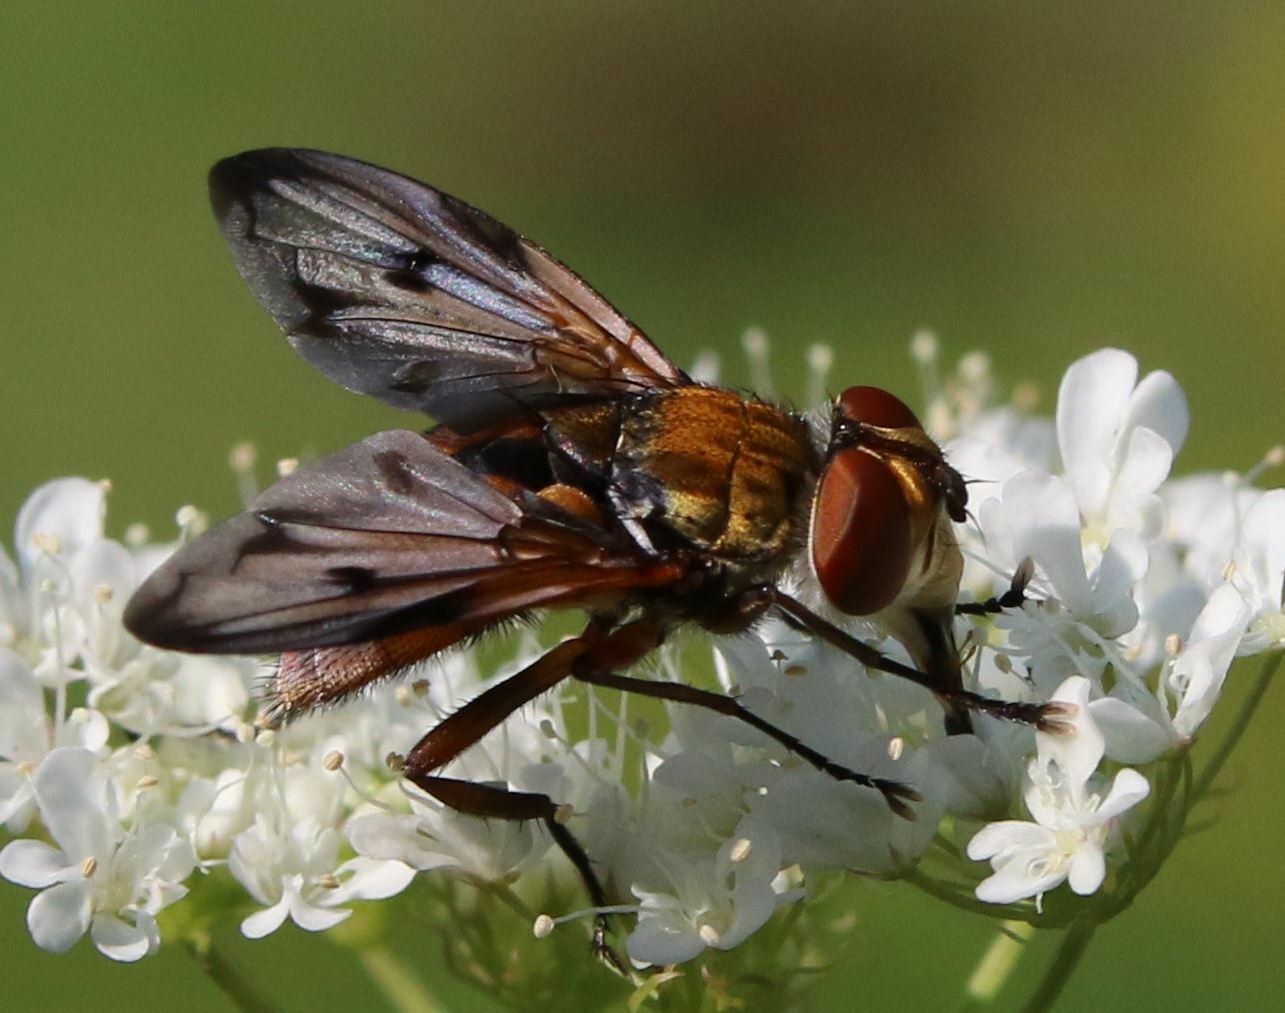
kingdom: Animalia
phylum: Arthropoda
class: Insecta
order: Diptera
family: Tachinidae
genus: Ectophasia
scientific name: Ectophasia crassipennis
